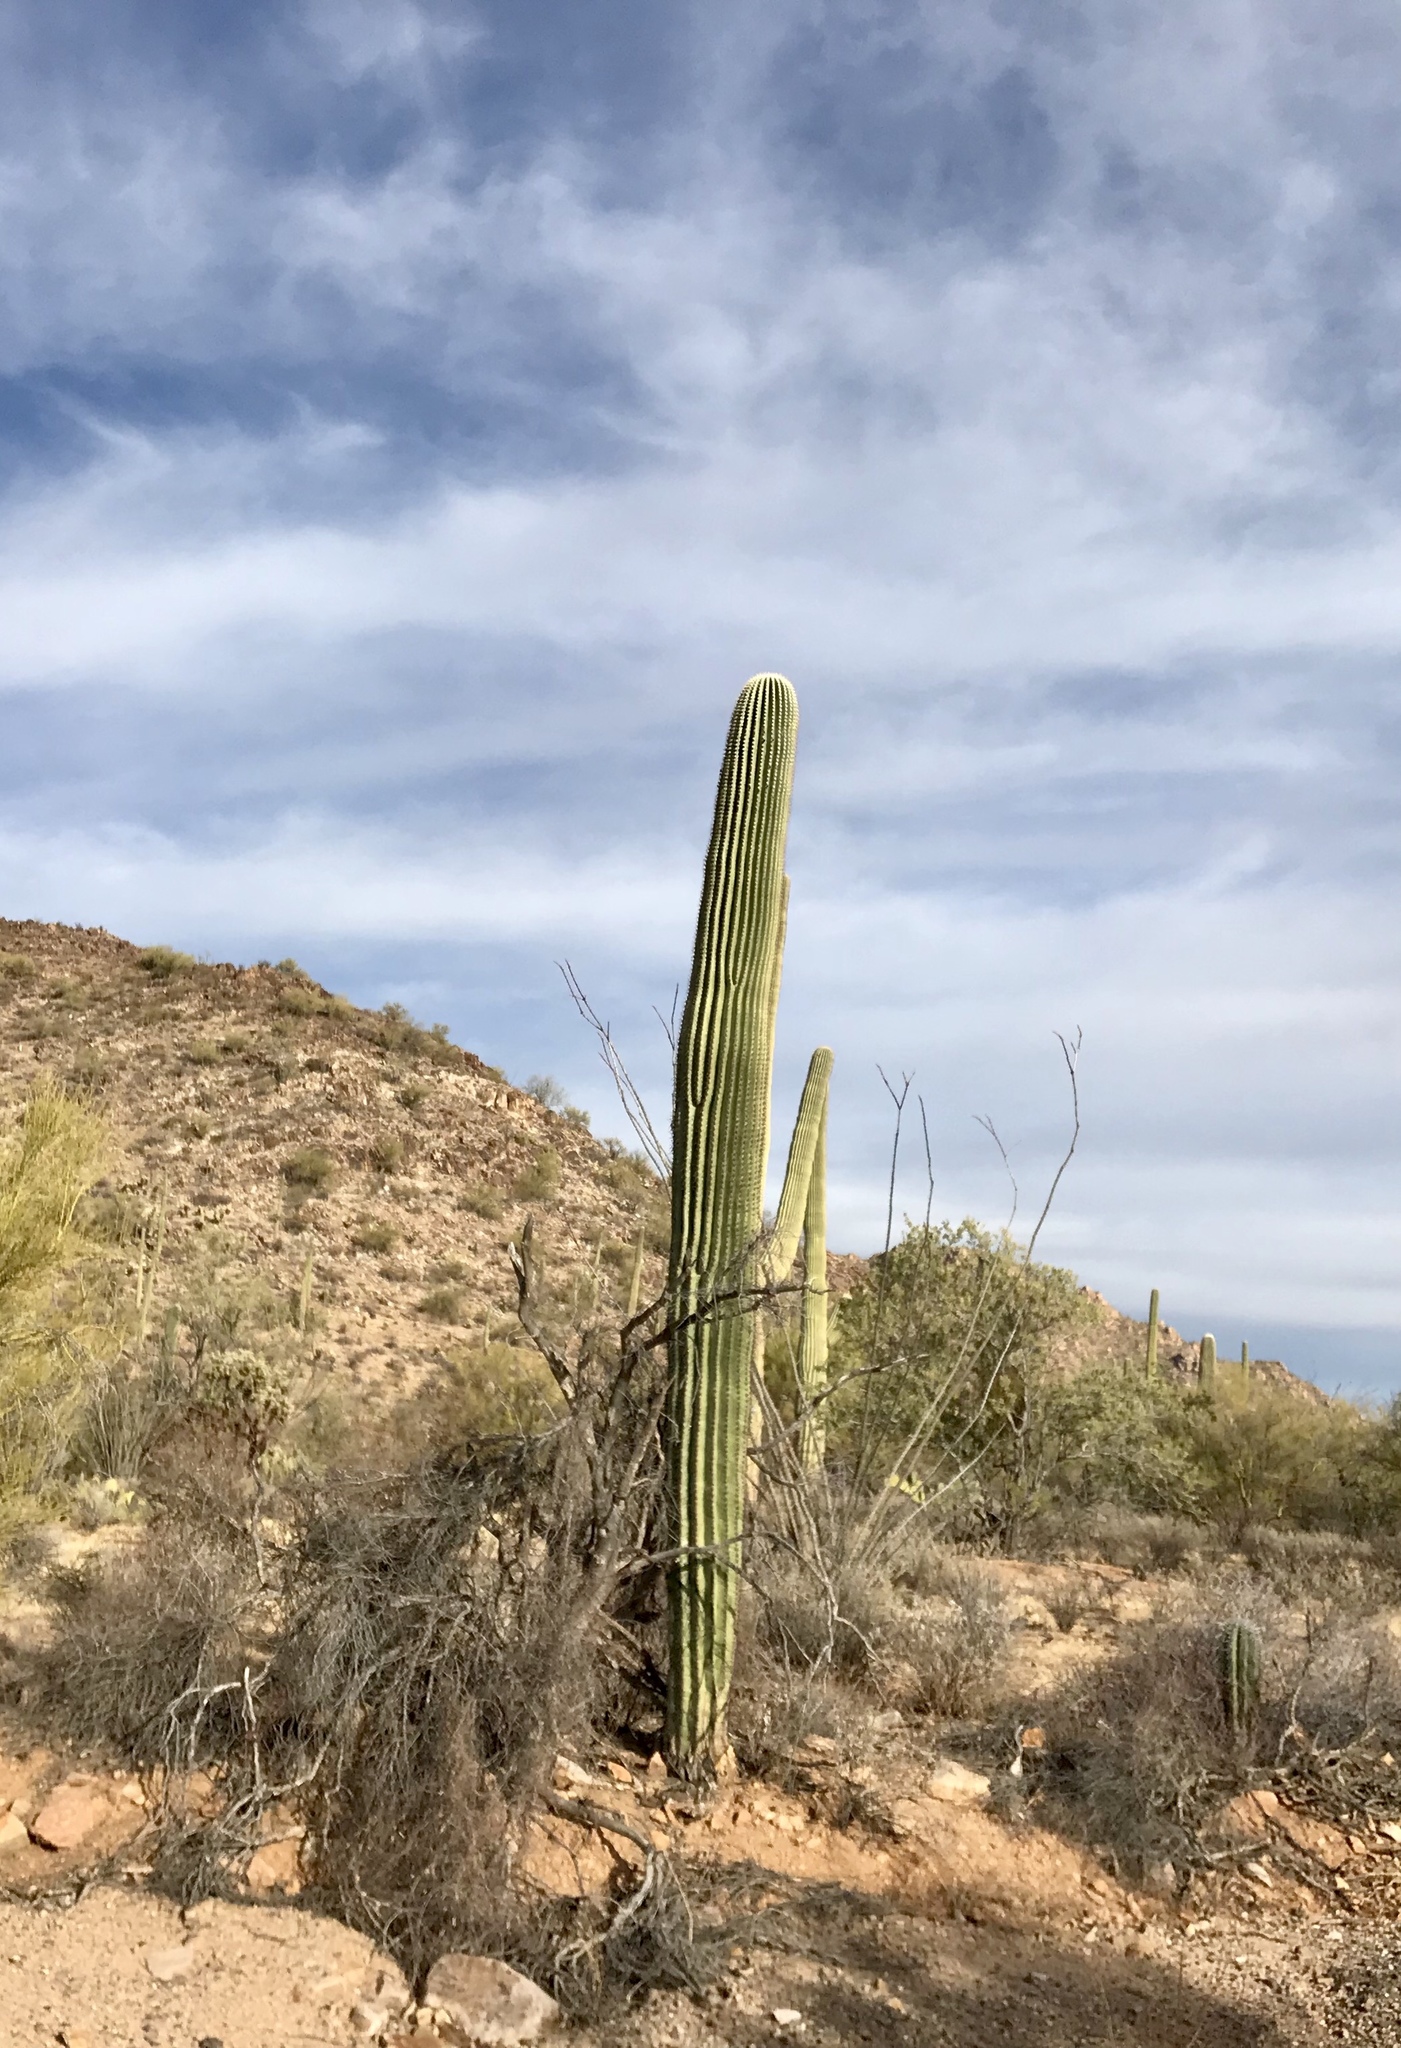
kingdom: Plantae
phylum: Tracheophyta
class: Magnoliopsida
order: Caryophyllales
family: Cactaceae
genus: Carnegiea
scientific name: Carnegiea gigantea
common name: Saguaro
